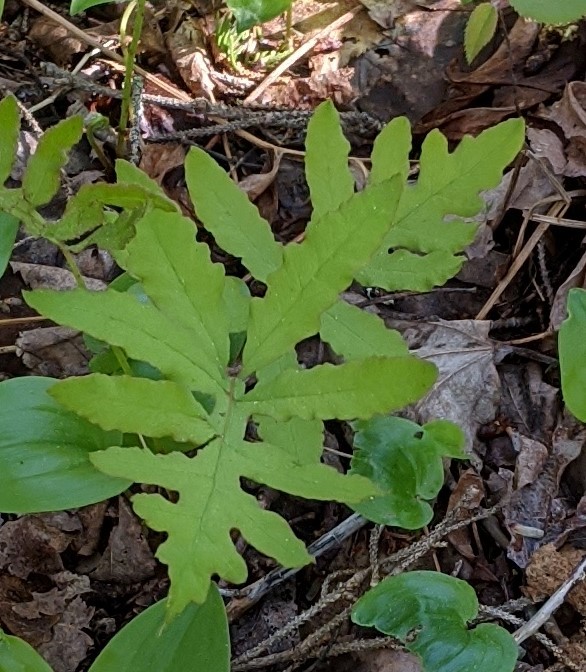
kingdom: Plantae
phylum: Tracheophyta
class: Polypodiopsida
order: Polypodiales
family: Onocleaceae
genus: Onoclea
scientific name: Onoclea sensibilis
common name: Sensitive fern
